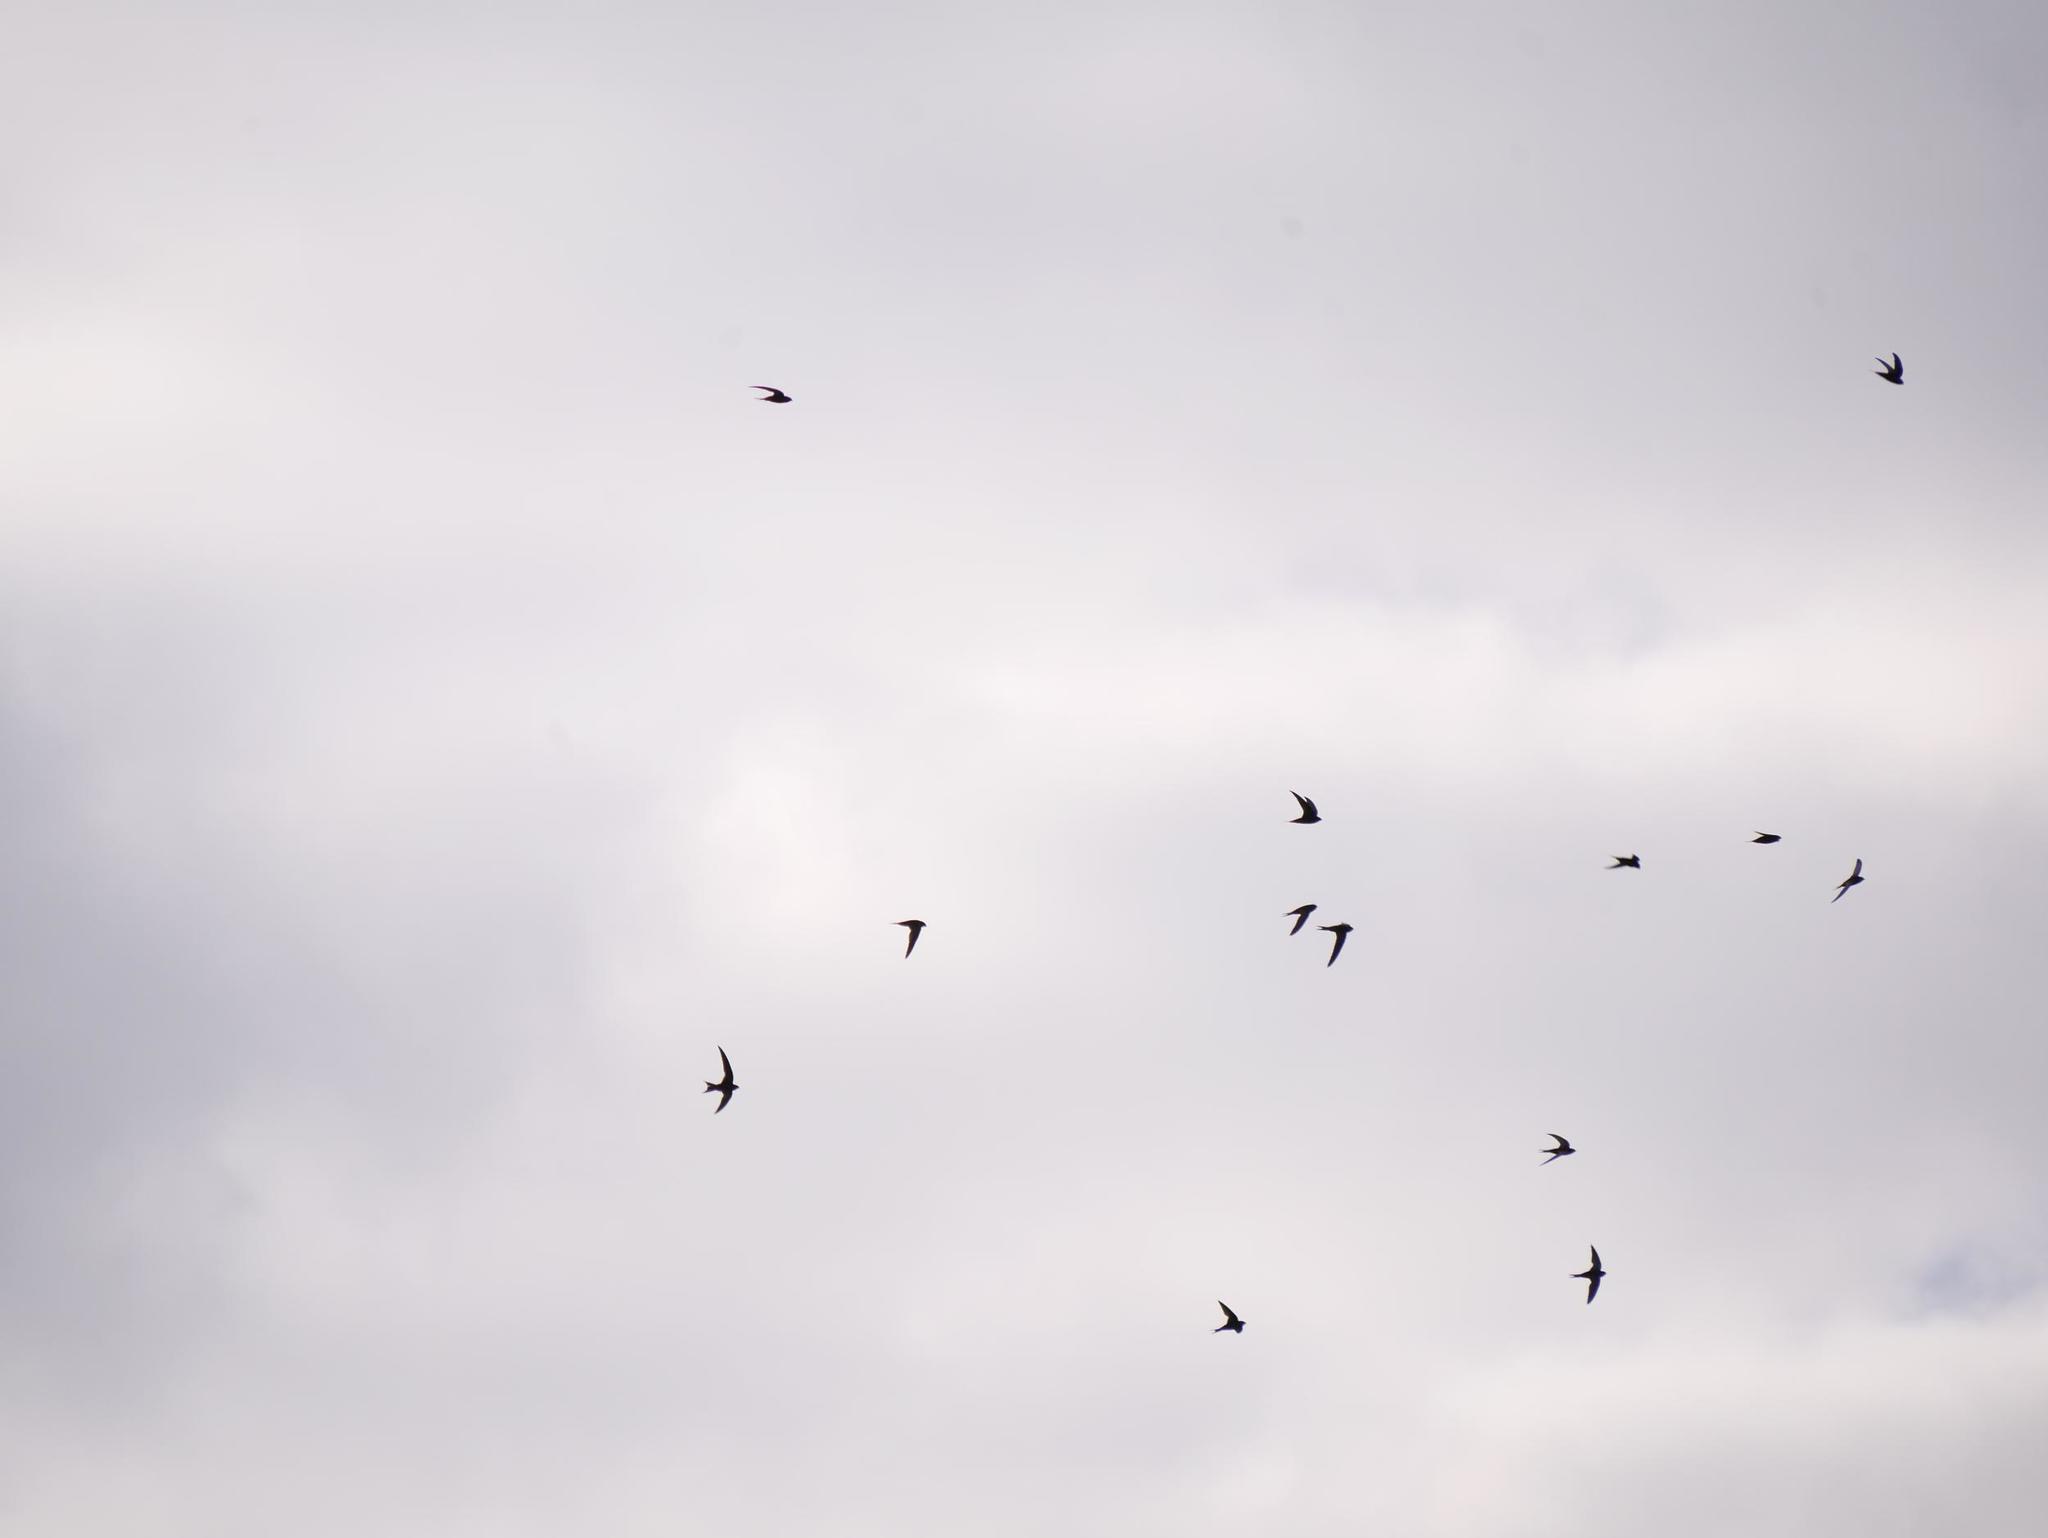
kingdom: Animalia
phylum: Chordata
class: Aves
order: Apodiformes
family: Apodidae
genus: Apus
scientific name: Apus apus
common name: Common swift
